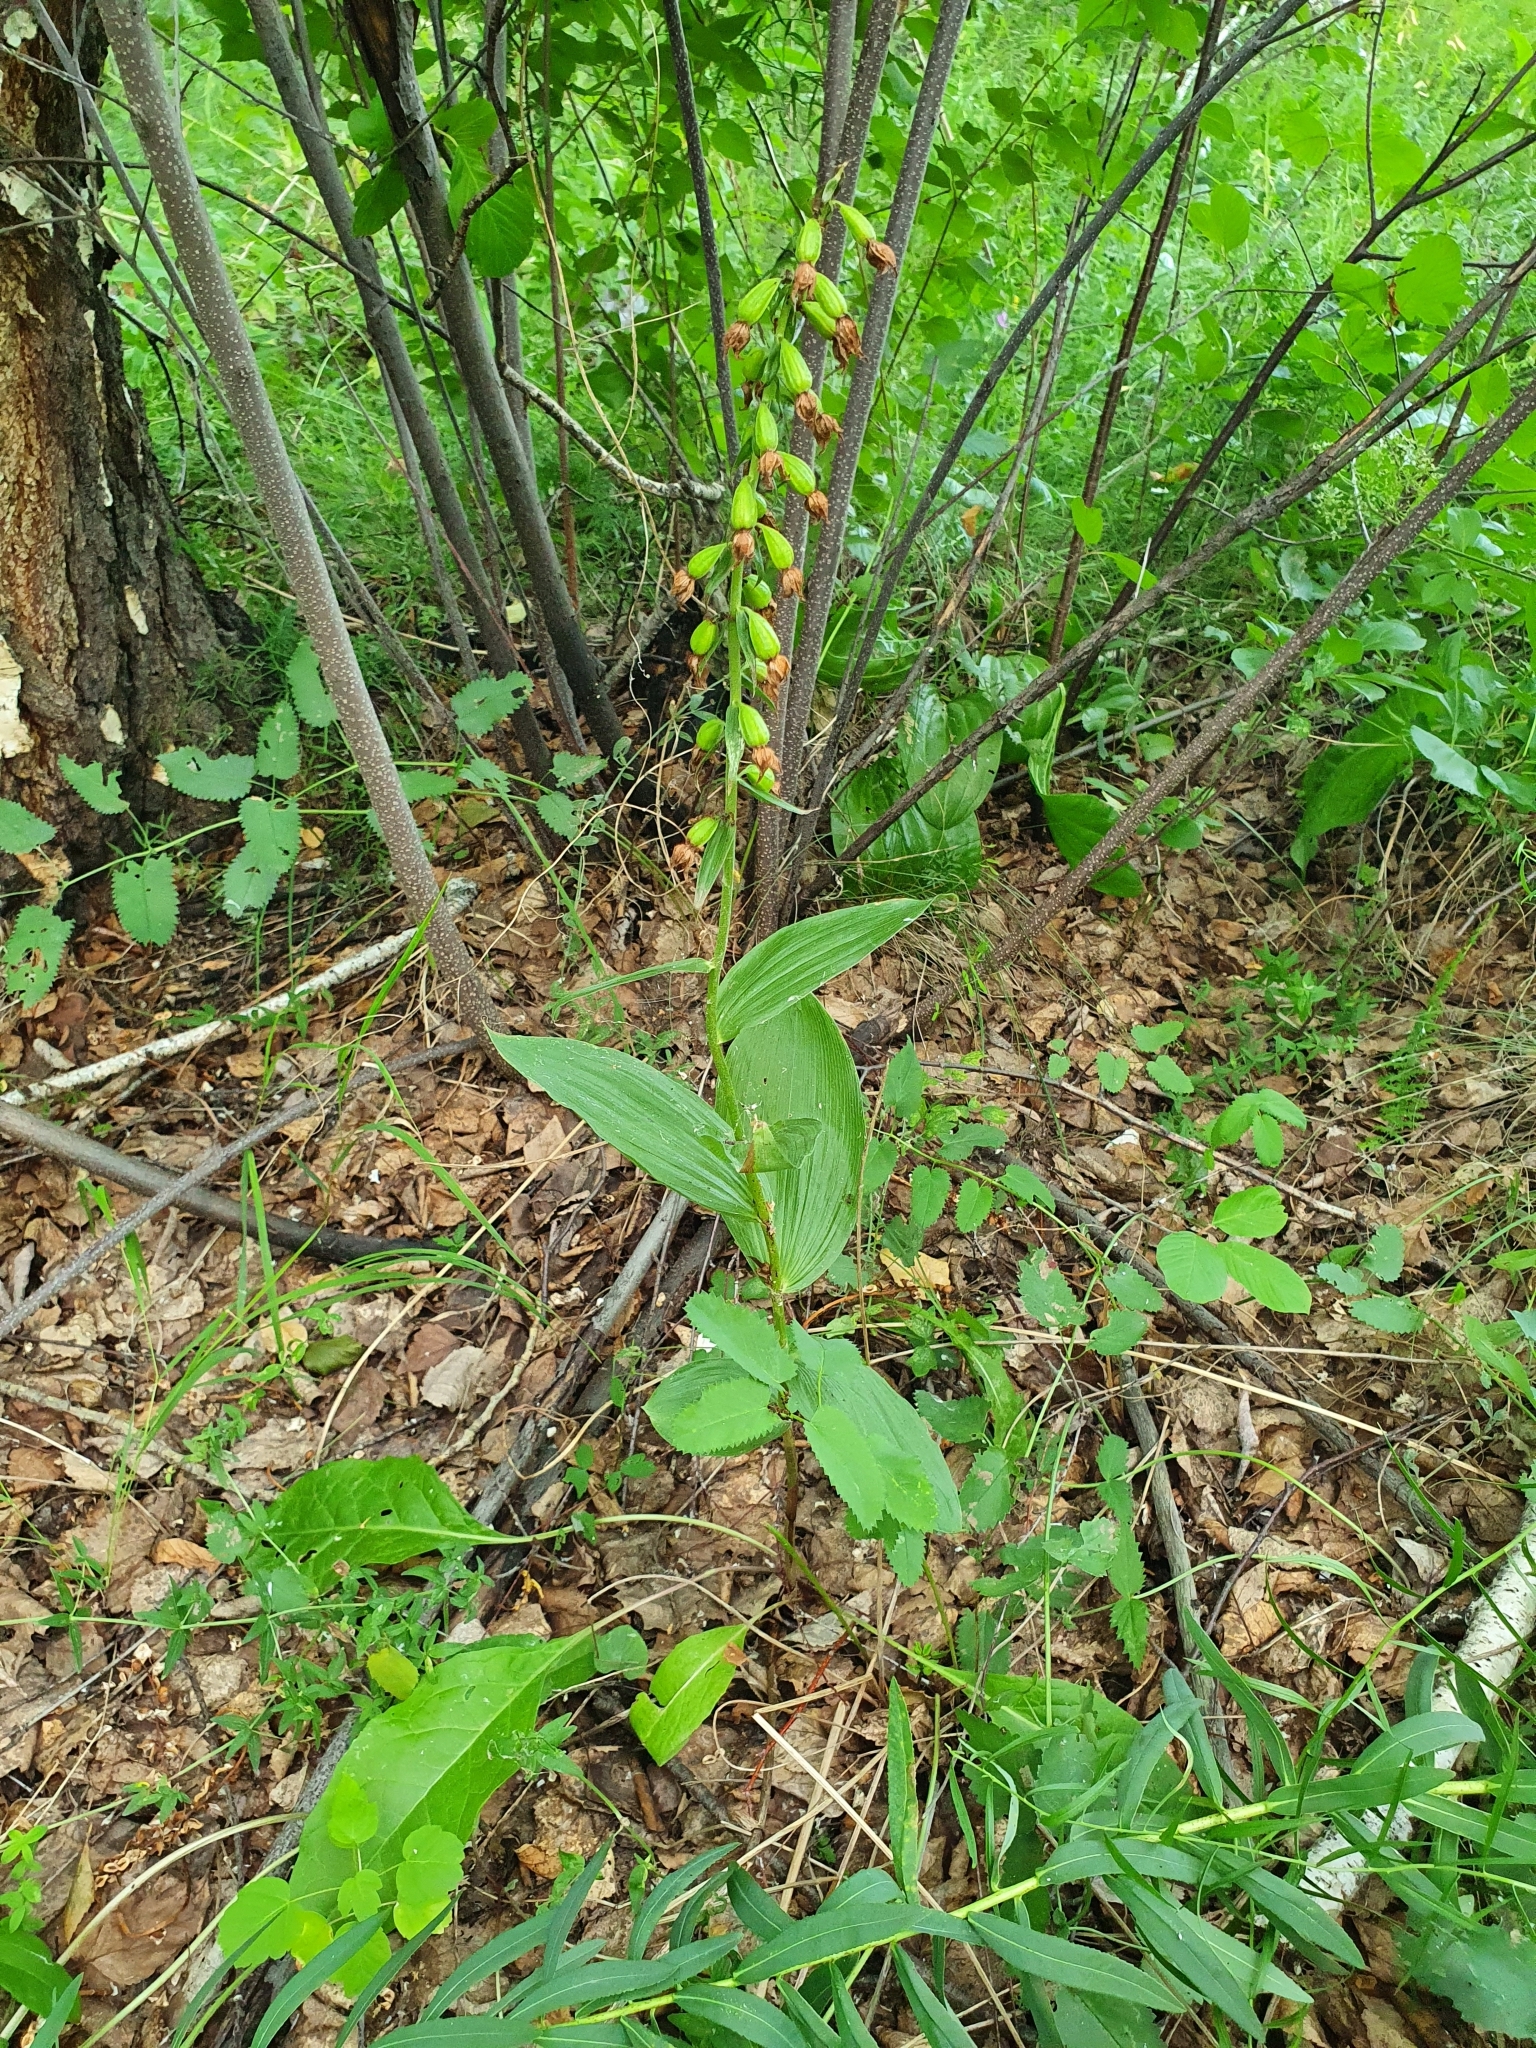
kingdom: Plantae
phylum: Tracheophyta
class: Liliopsida
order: Asparagales
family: Orchidaceae
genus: Epipactis
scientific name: Epipactis helleborine
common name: Broad-leaved helleborine
